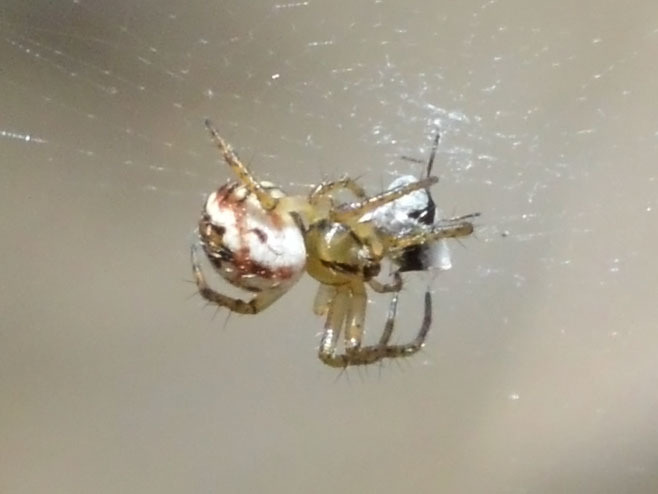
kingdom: Animalia
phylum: Arthropoda
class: Arachnida
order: Araneae
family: Araneidae
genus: Mangora
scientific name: Mangora acalypha
